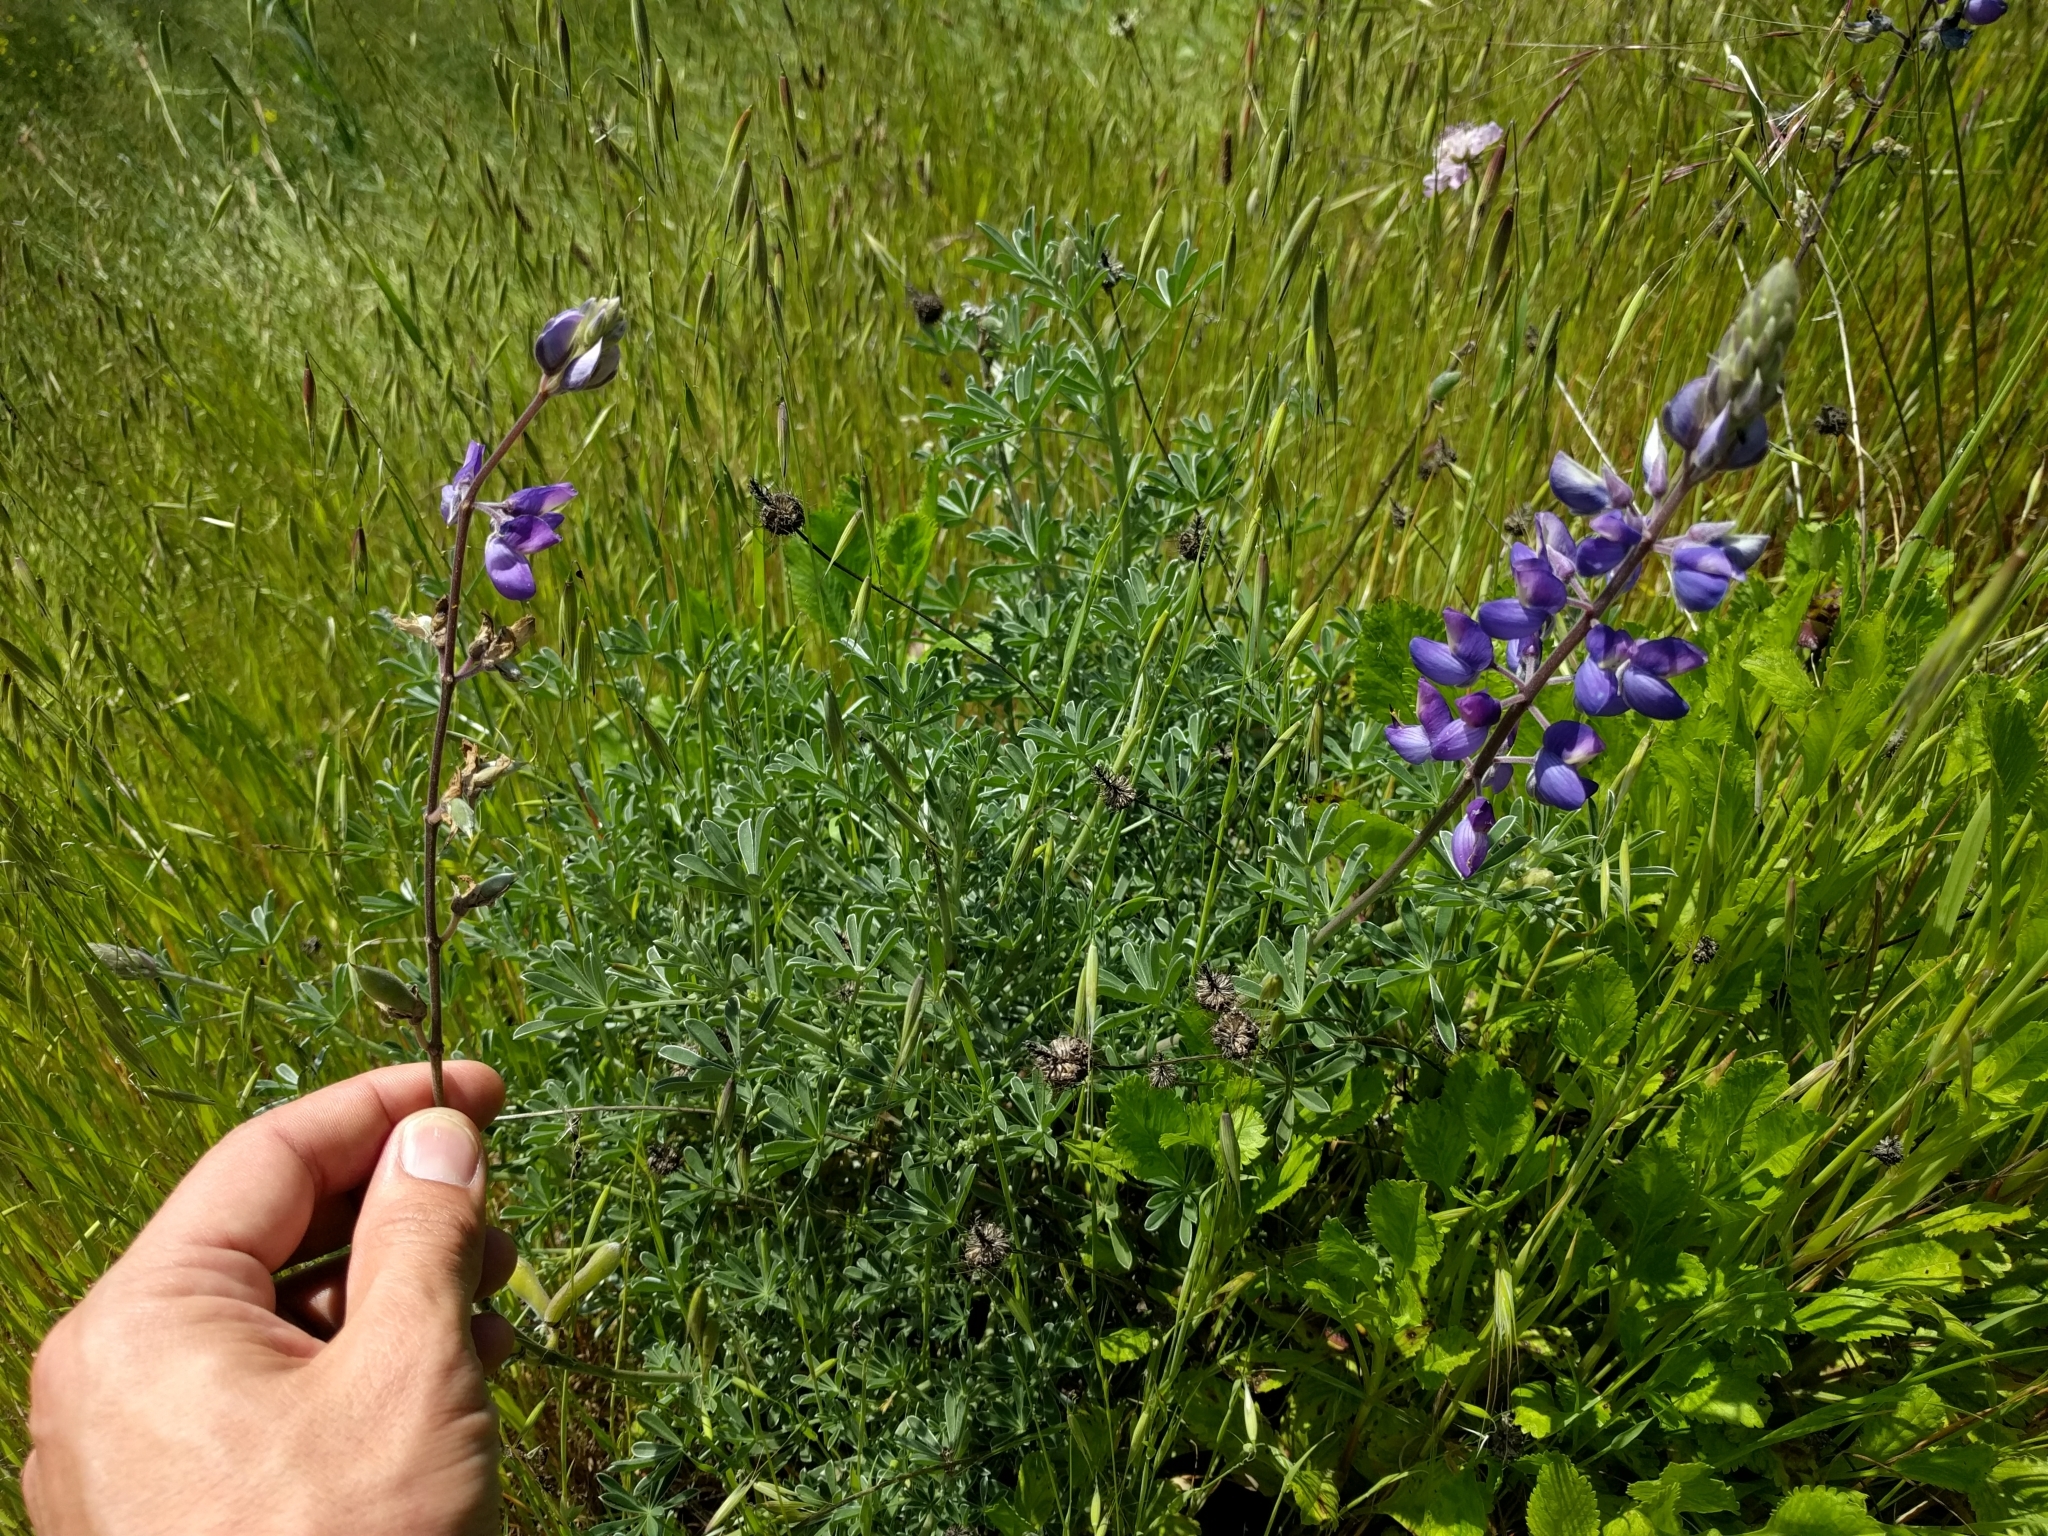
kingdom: Plantae
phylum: Tracheophyta
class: Magnoliopsida
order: Fabales
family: Fabaceae
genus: Lupinus
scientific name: Lupinus albifrons
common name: Foothill lupine
